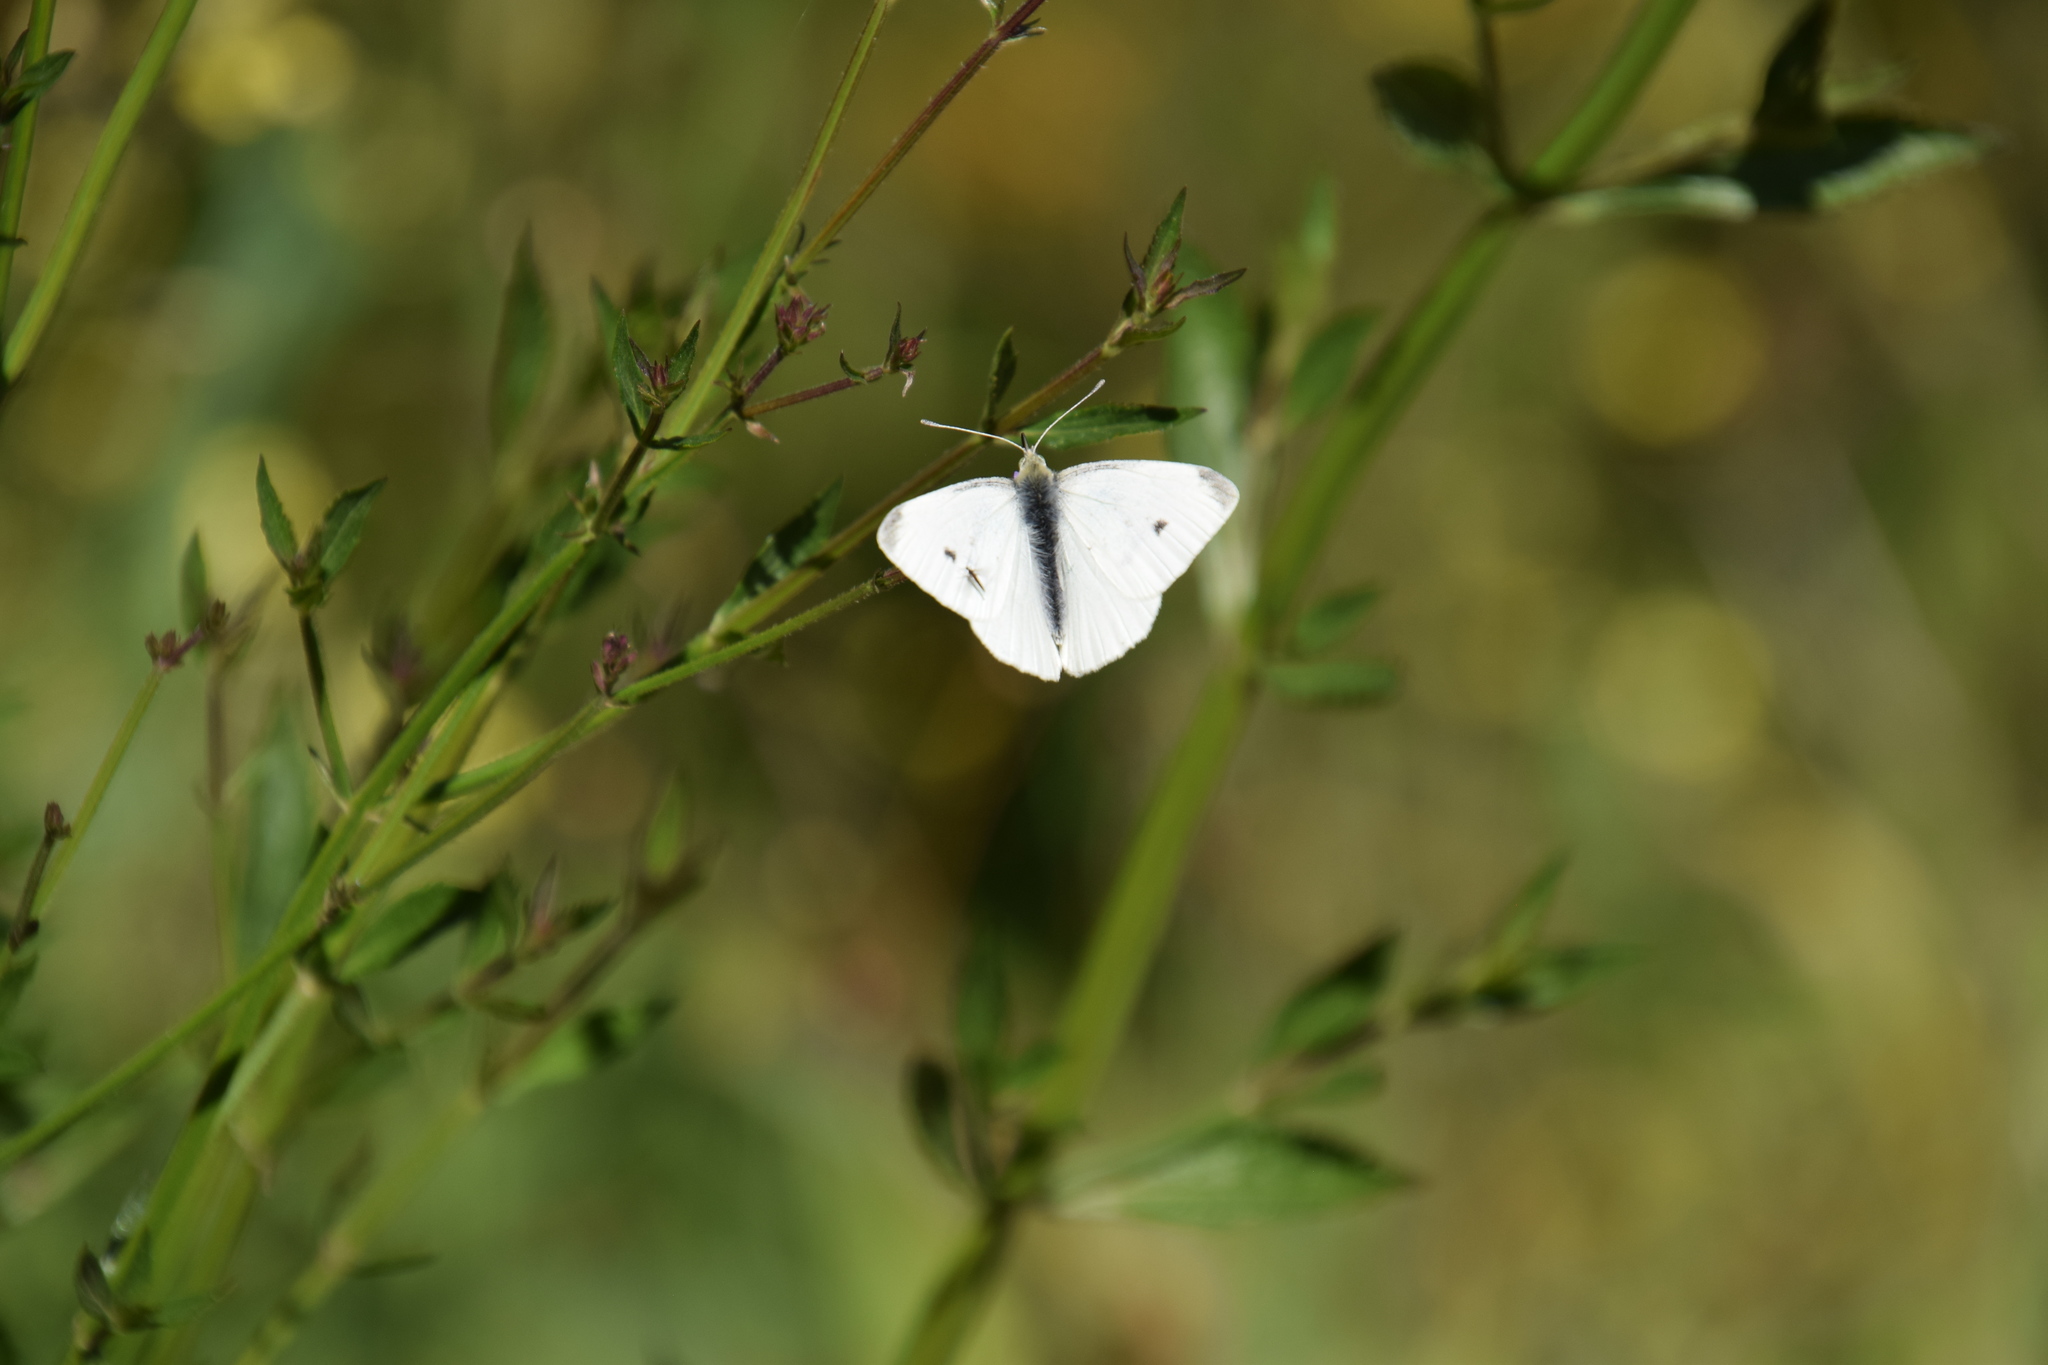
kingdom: Animalia
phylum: Arthropoda
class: Insecta
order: Lepidoptera
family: Pieridae
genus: Pieris
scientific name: Pieris rapae
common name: Small white
